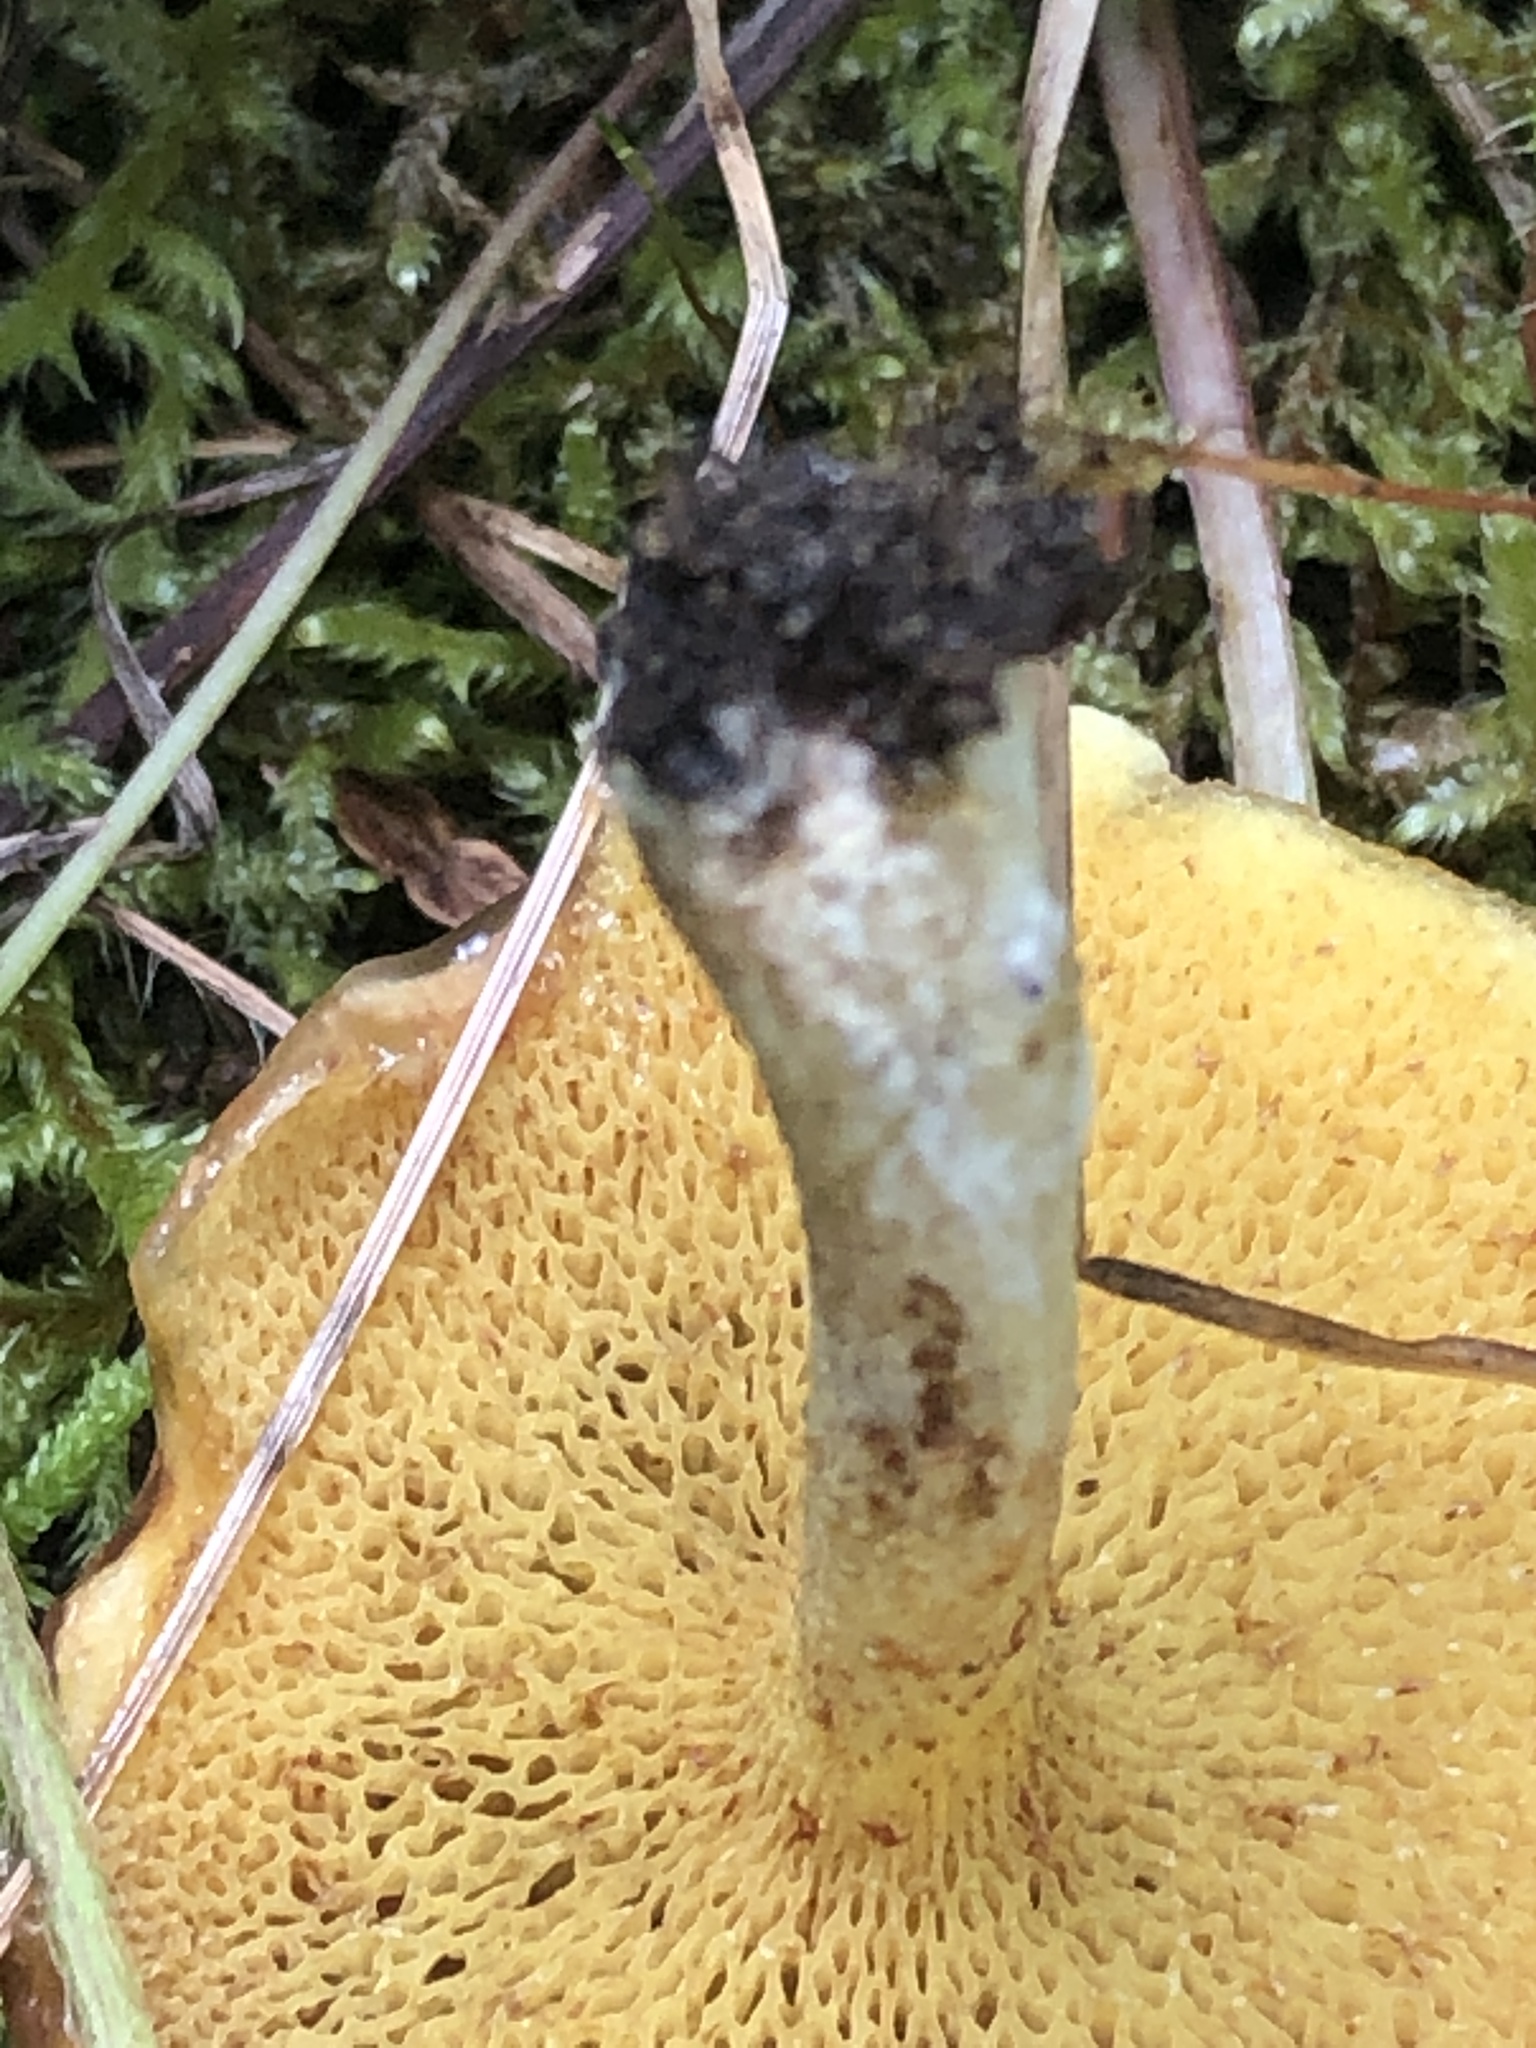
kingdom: Fungi
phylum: Basidiomycota
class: Agaricomycetes
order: Boletales
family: Suillaceae
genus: Suillus
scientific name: Suillus americanus
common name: Chicken fat mushroom
